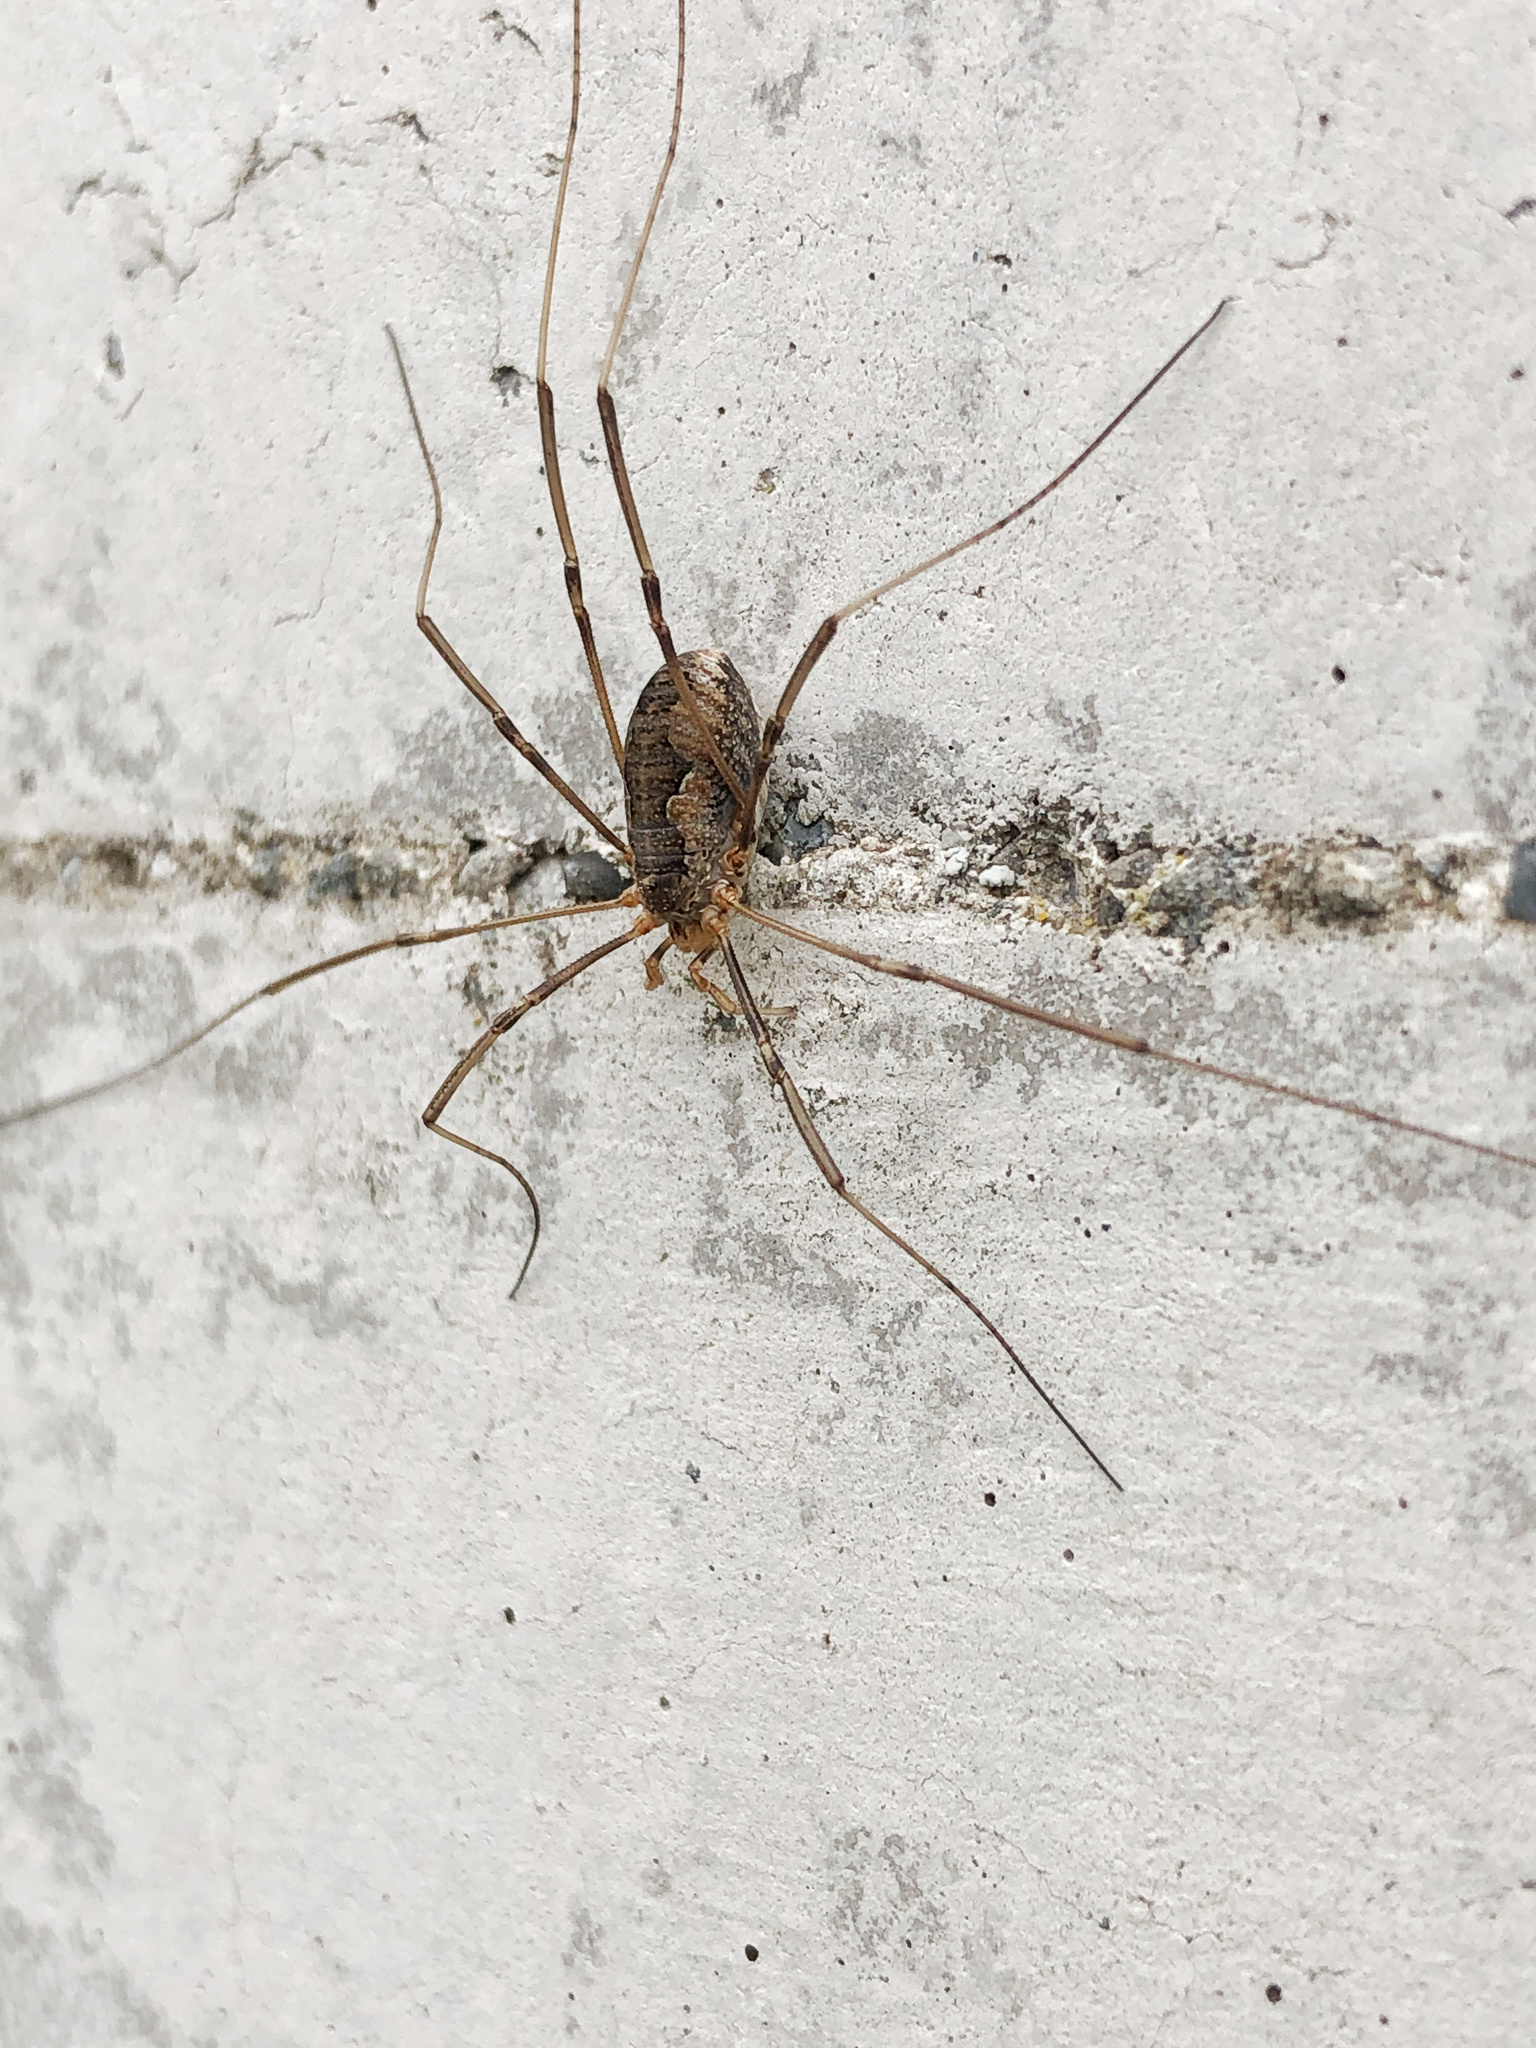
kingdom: Animalia
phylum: Arthropoda
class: Arachnida
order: Opiliones
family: Phalangiidae
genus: Phalangium
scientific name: Phalangium opilio
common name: Daddy longleg
